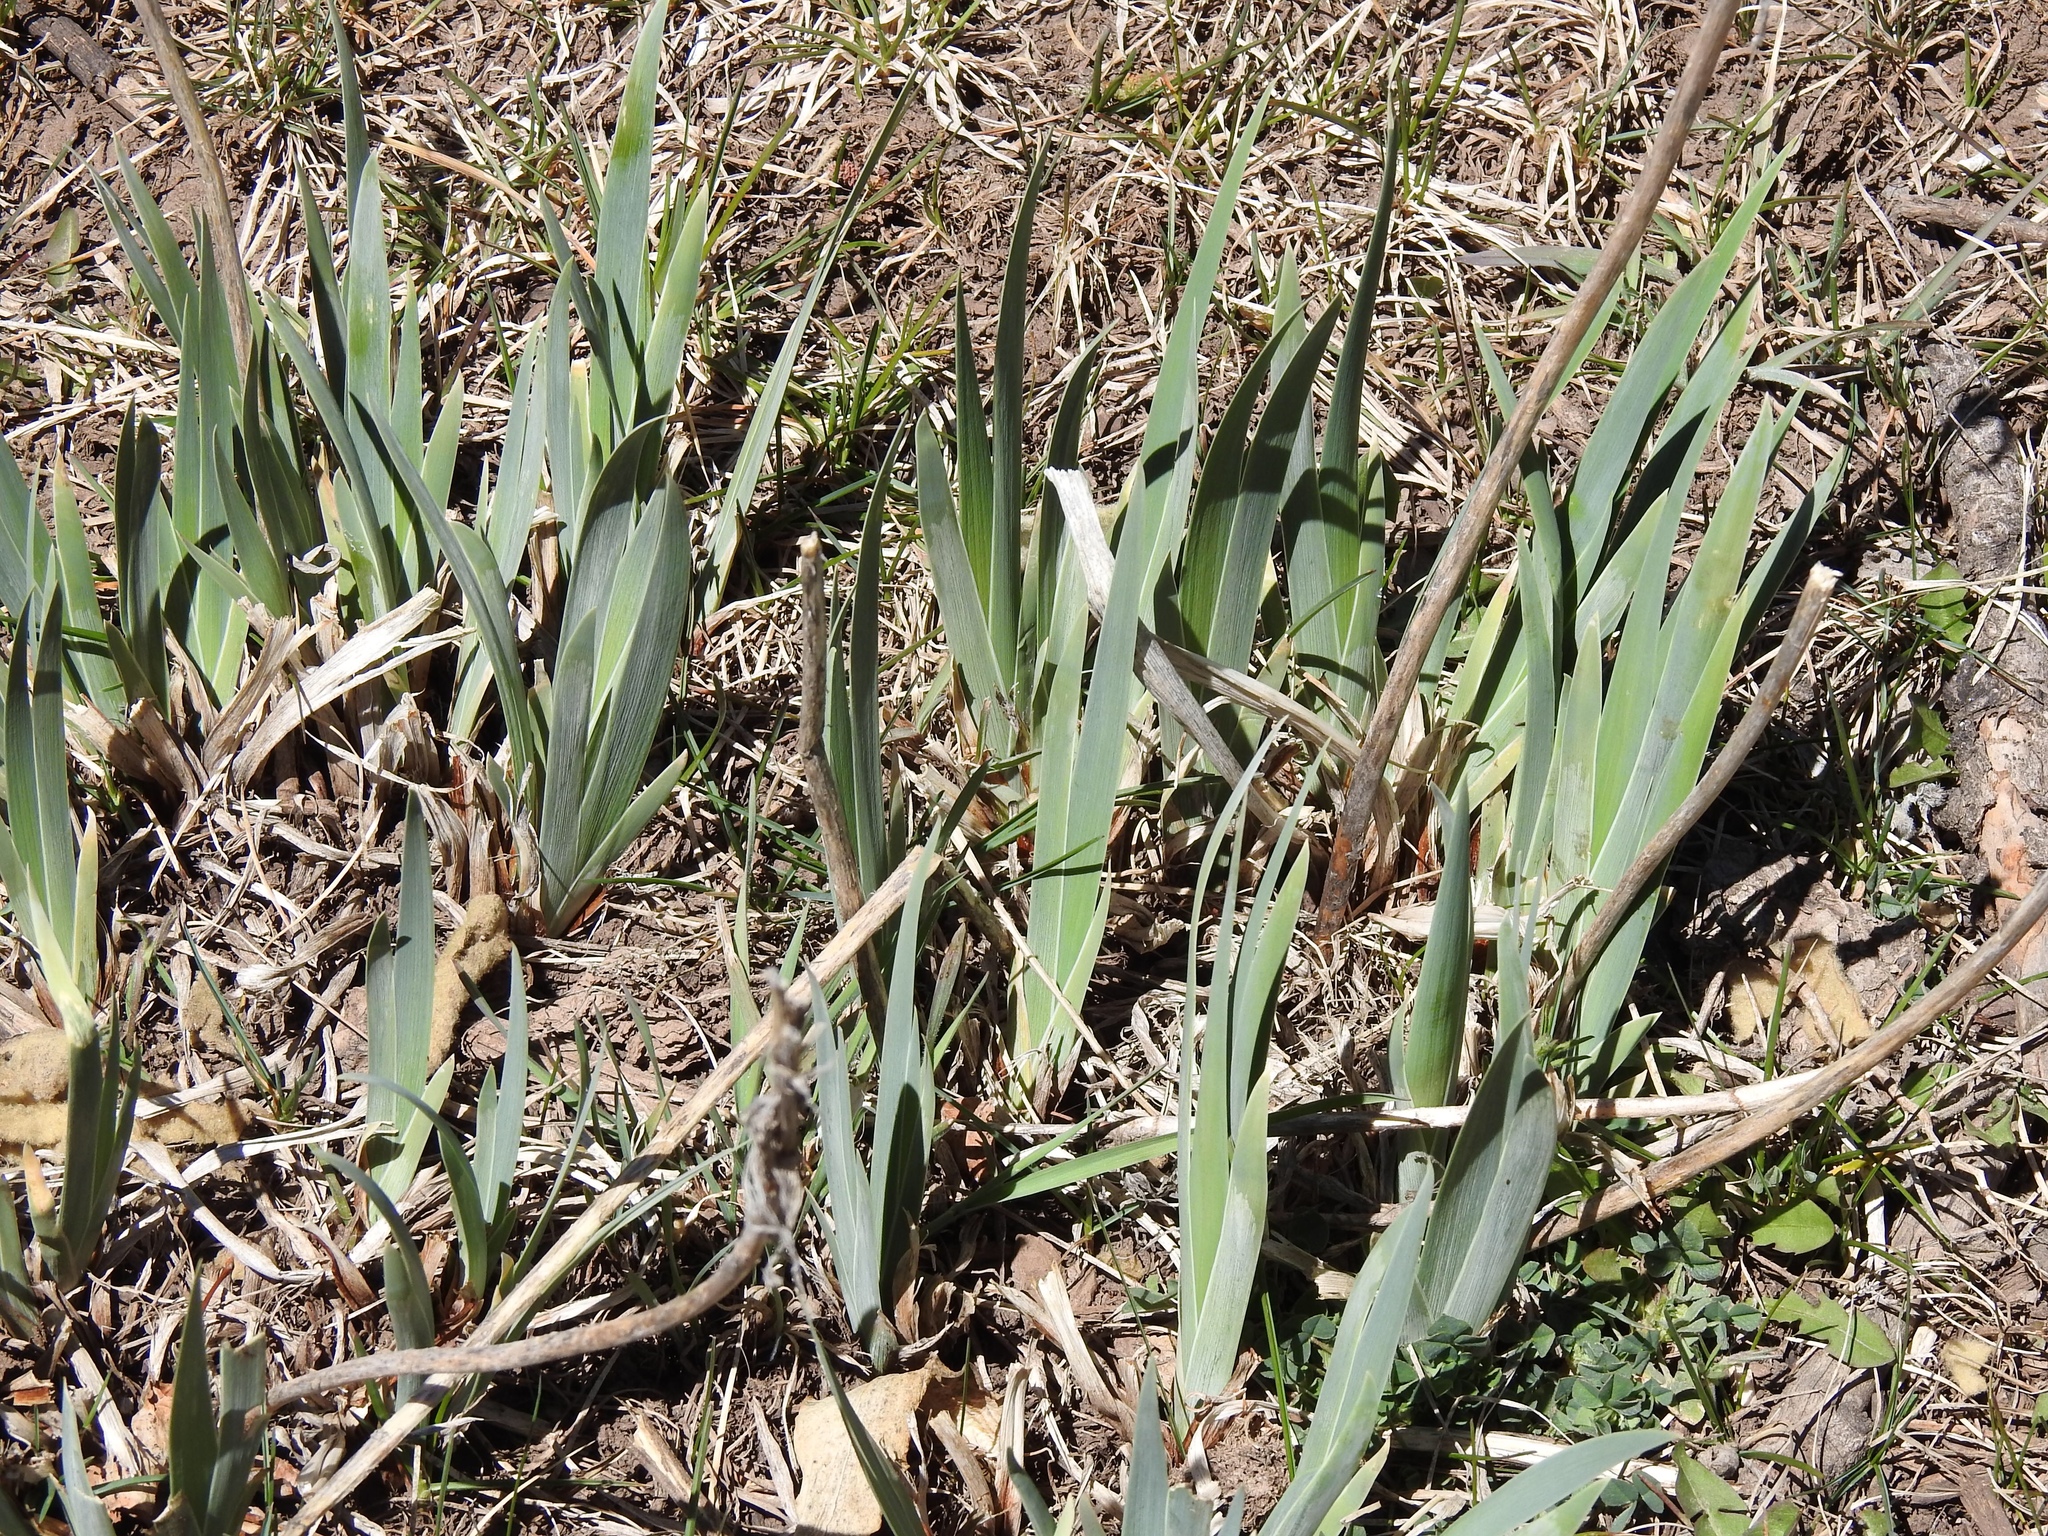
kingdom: Plantae
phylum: Tracheophyta
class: Liliopsida
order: Asparagales
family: Iridaceae
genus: Iris
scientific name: Iris missouriensis
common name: Rocky mountain iris
